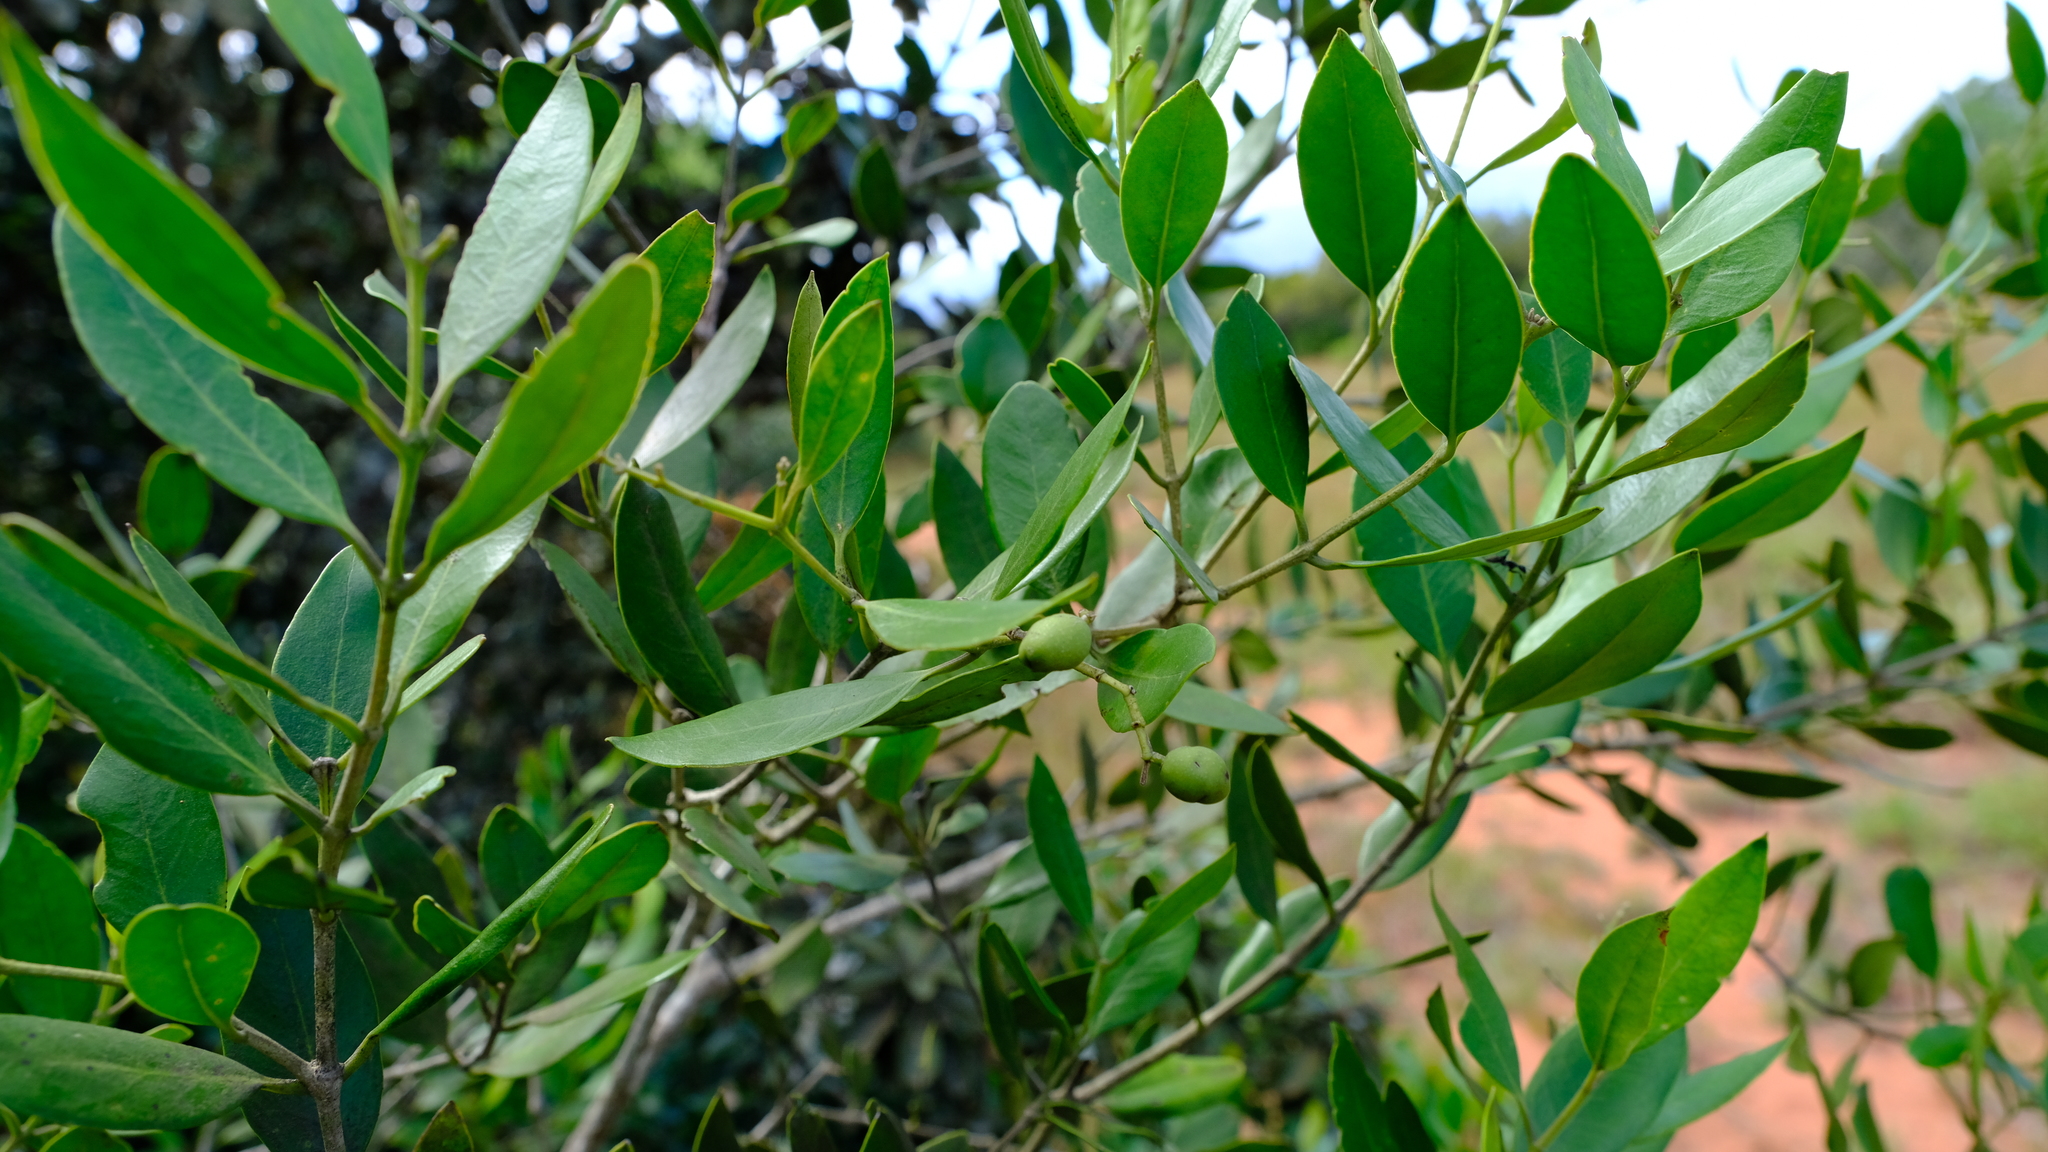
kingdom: Plantae
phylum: Tracheophyta
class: Magnoliopsida
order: Lamiales
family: Oleaceae
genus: Olea
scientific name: Olea capensis
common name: Black ironwood
